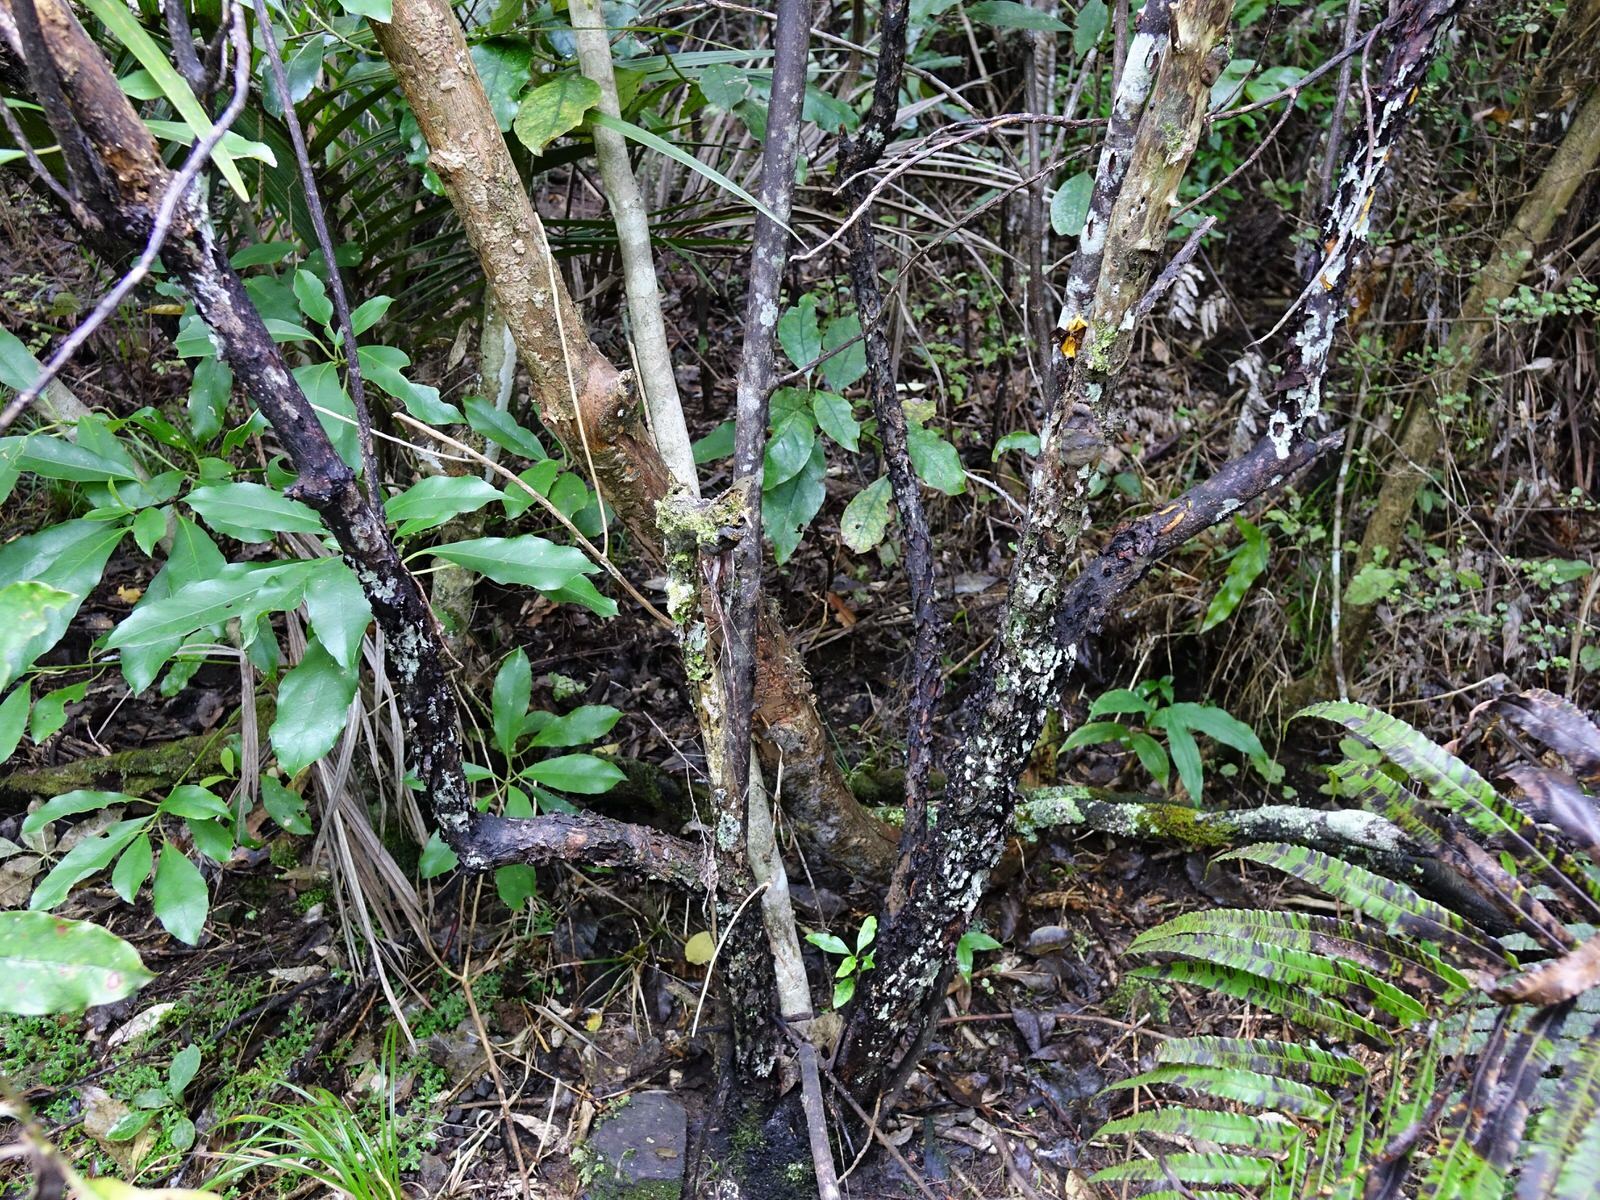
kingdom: Plantae
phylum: Tracheophyta
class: Magnoliopsida
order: Gentianales
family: Rubiaceae
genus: Coprosma
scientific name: Coprosma autumnalis
